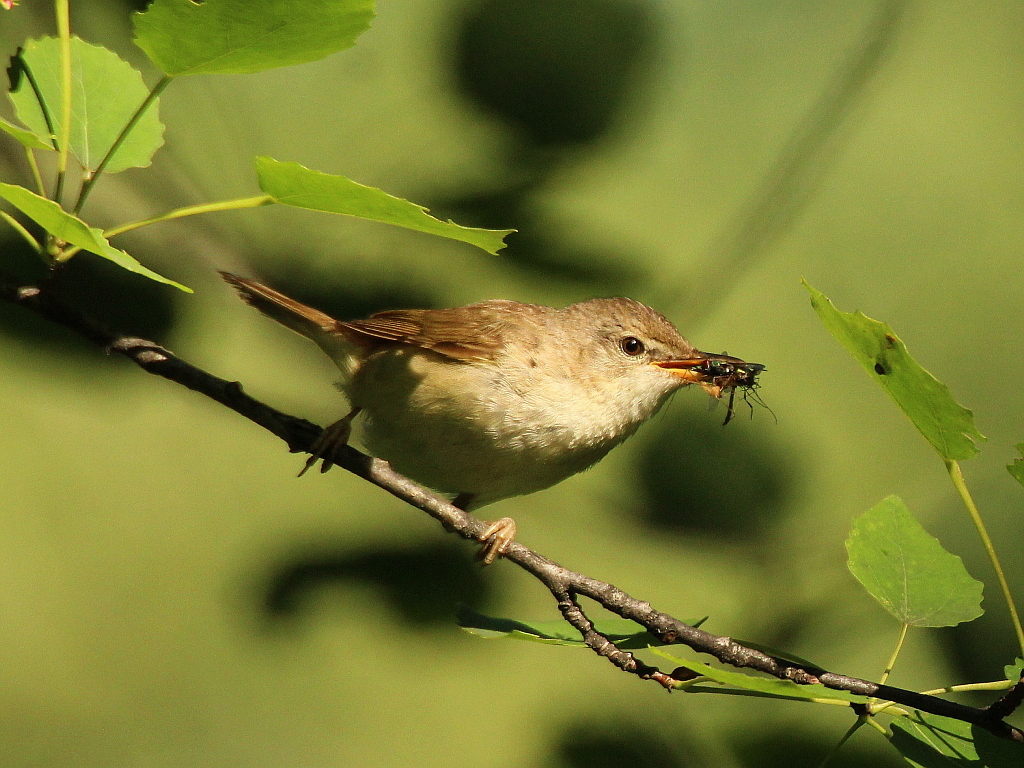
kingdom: Animalia
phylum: Chordata
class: Aves
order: Passeriformes
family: Acrocephalidae
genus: Acrocephalus
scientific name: Acrocephalus dumetorum
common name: Blyth's reed warbler
